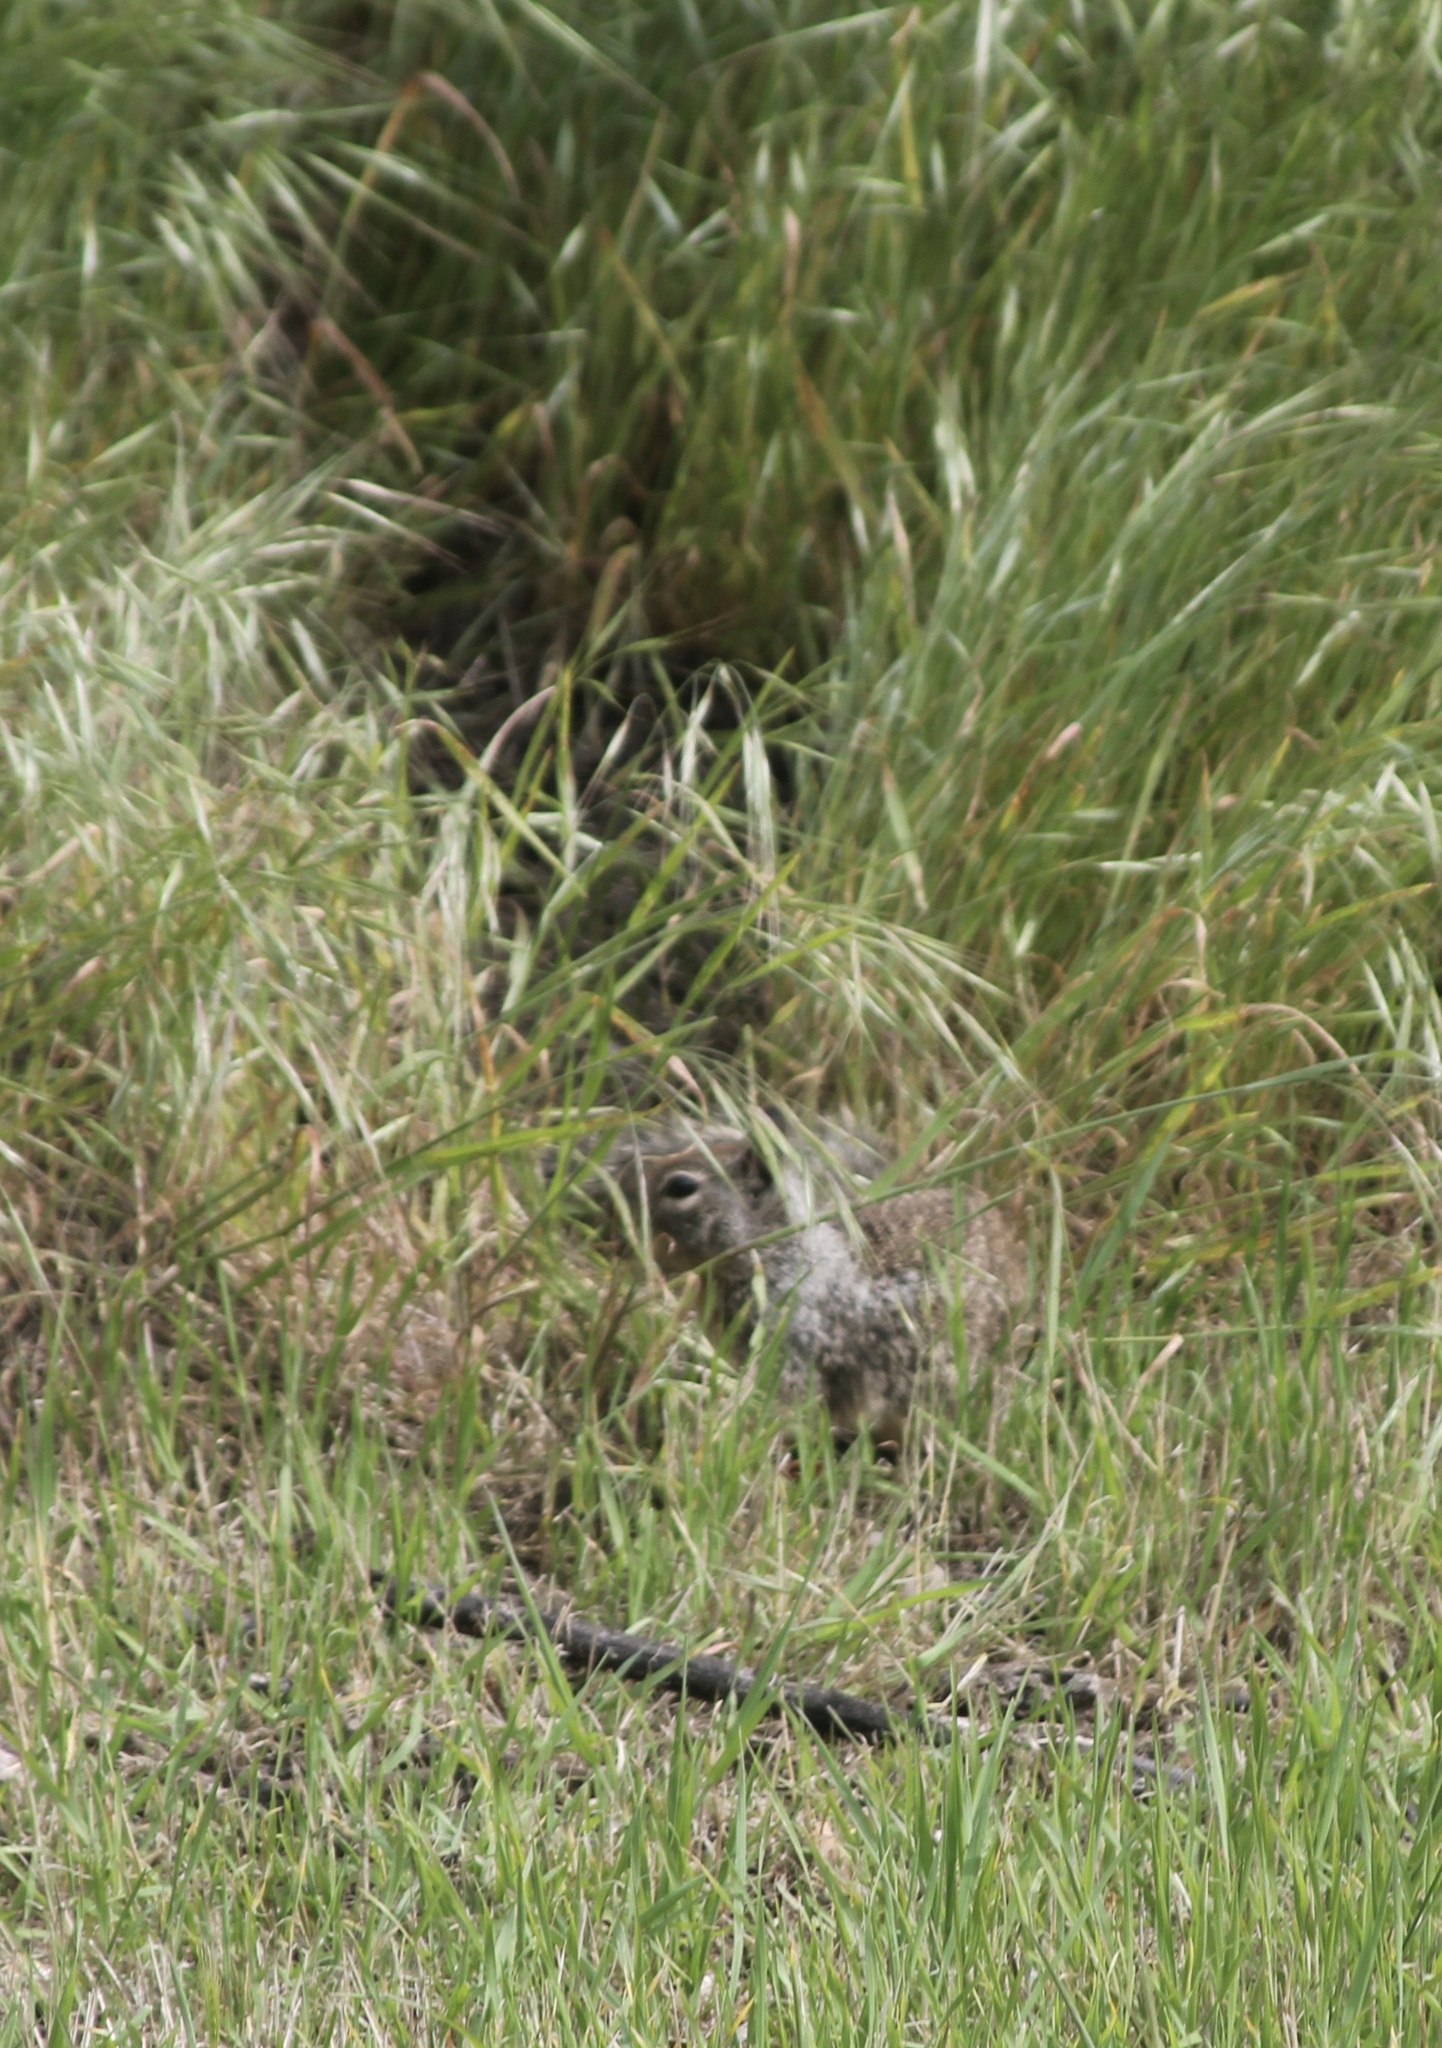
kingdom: Animalia
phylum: Chordata
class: Mammalia
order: Rodentia
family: Sciuridae
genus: Otospermophilus
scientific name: Otospermophilus beecheyi
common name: California ground squirrel
